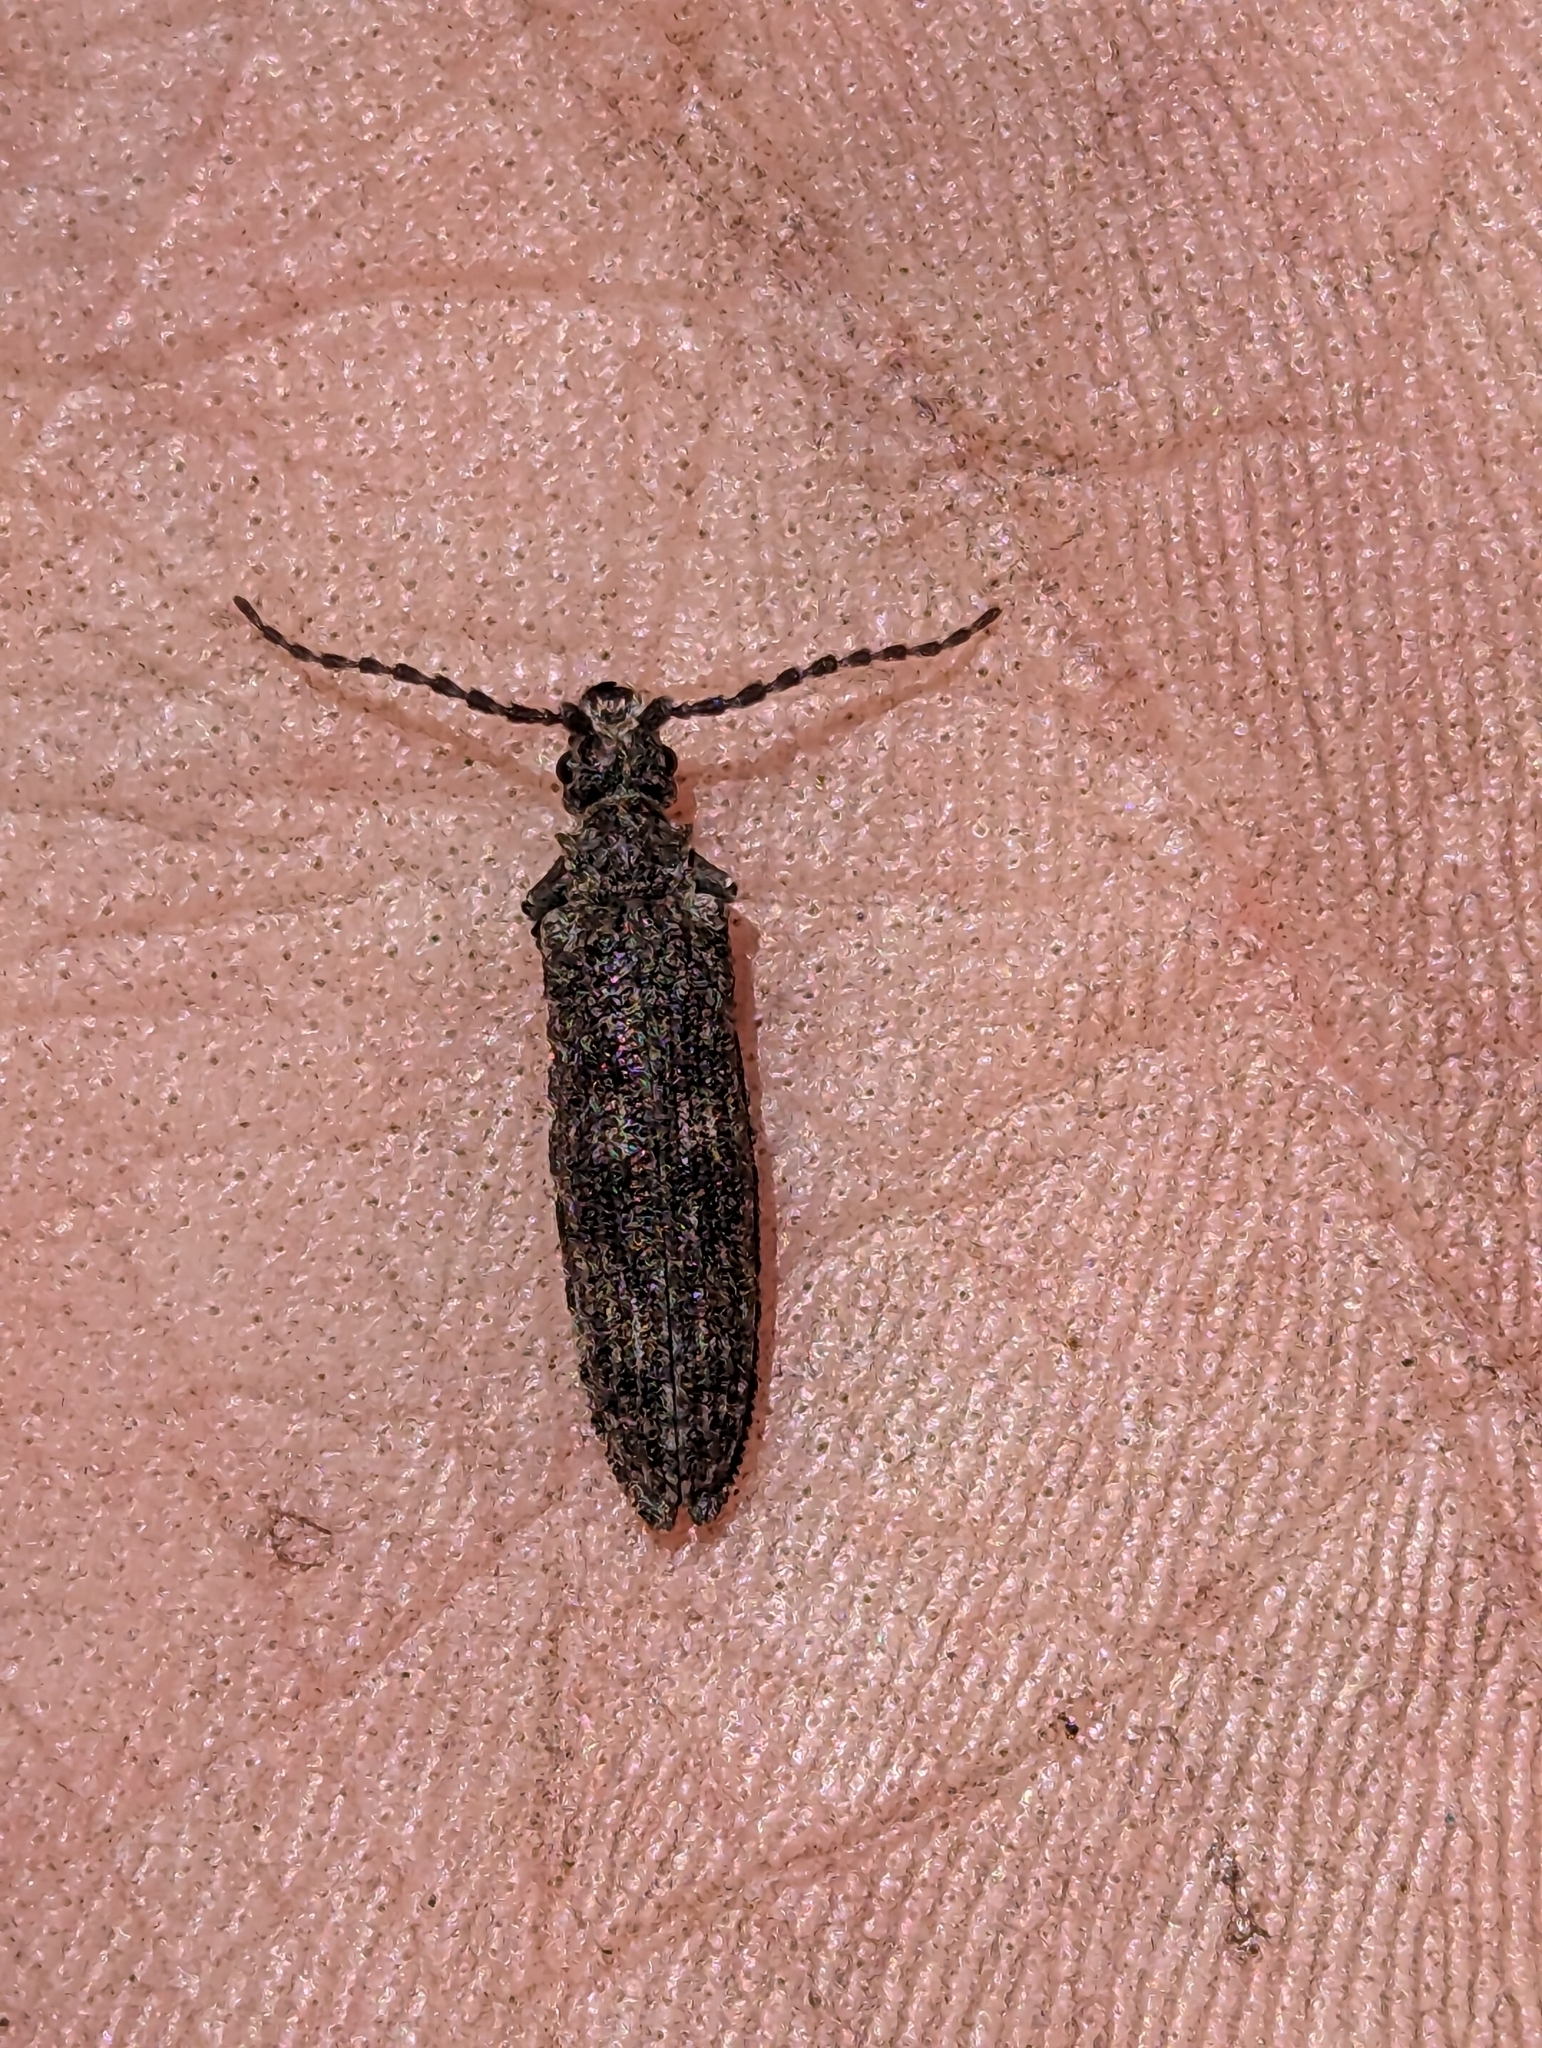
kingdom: Animalia
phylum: Arthropoda
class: Insecta
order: Coleoptera
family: Cupedidae
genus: Priacma
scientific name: Priacma serrata
